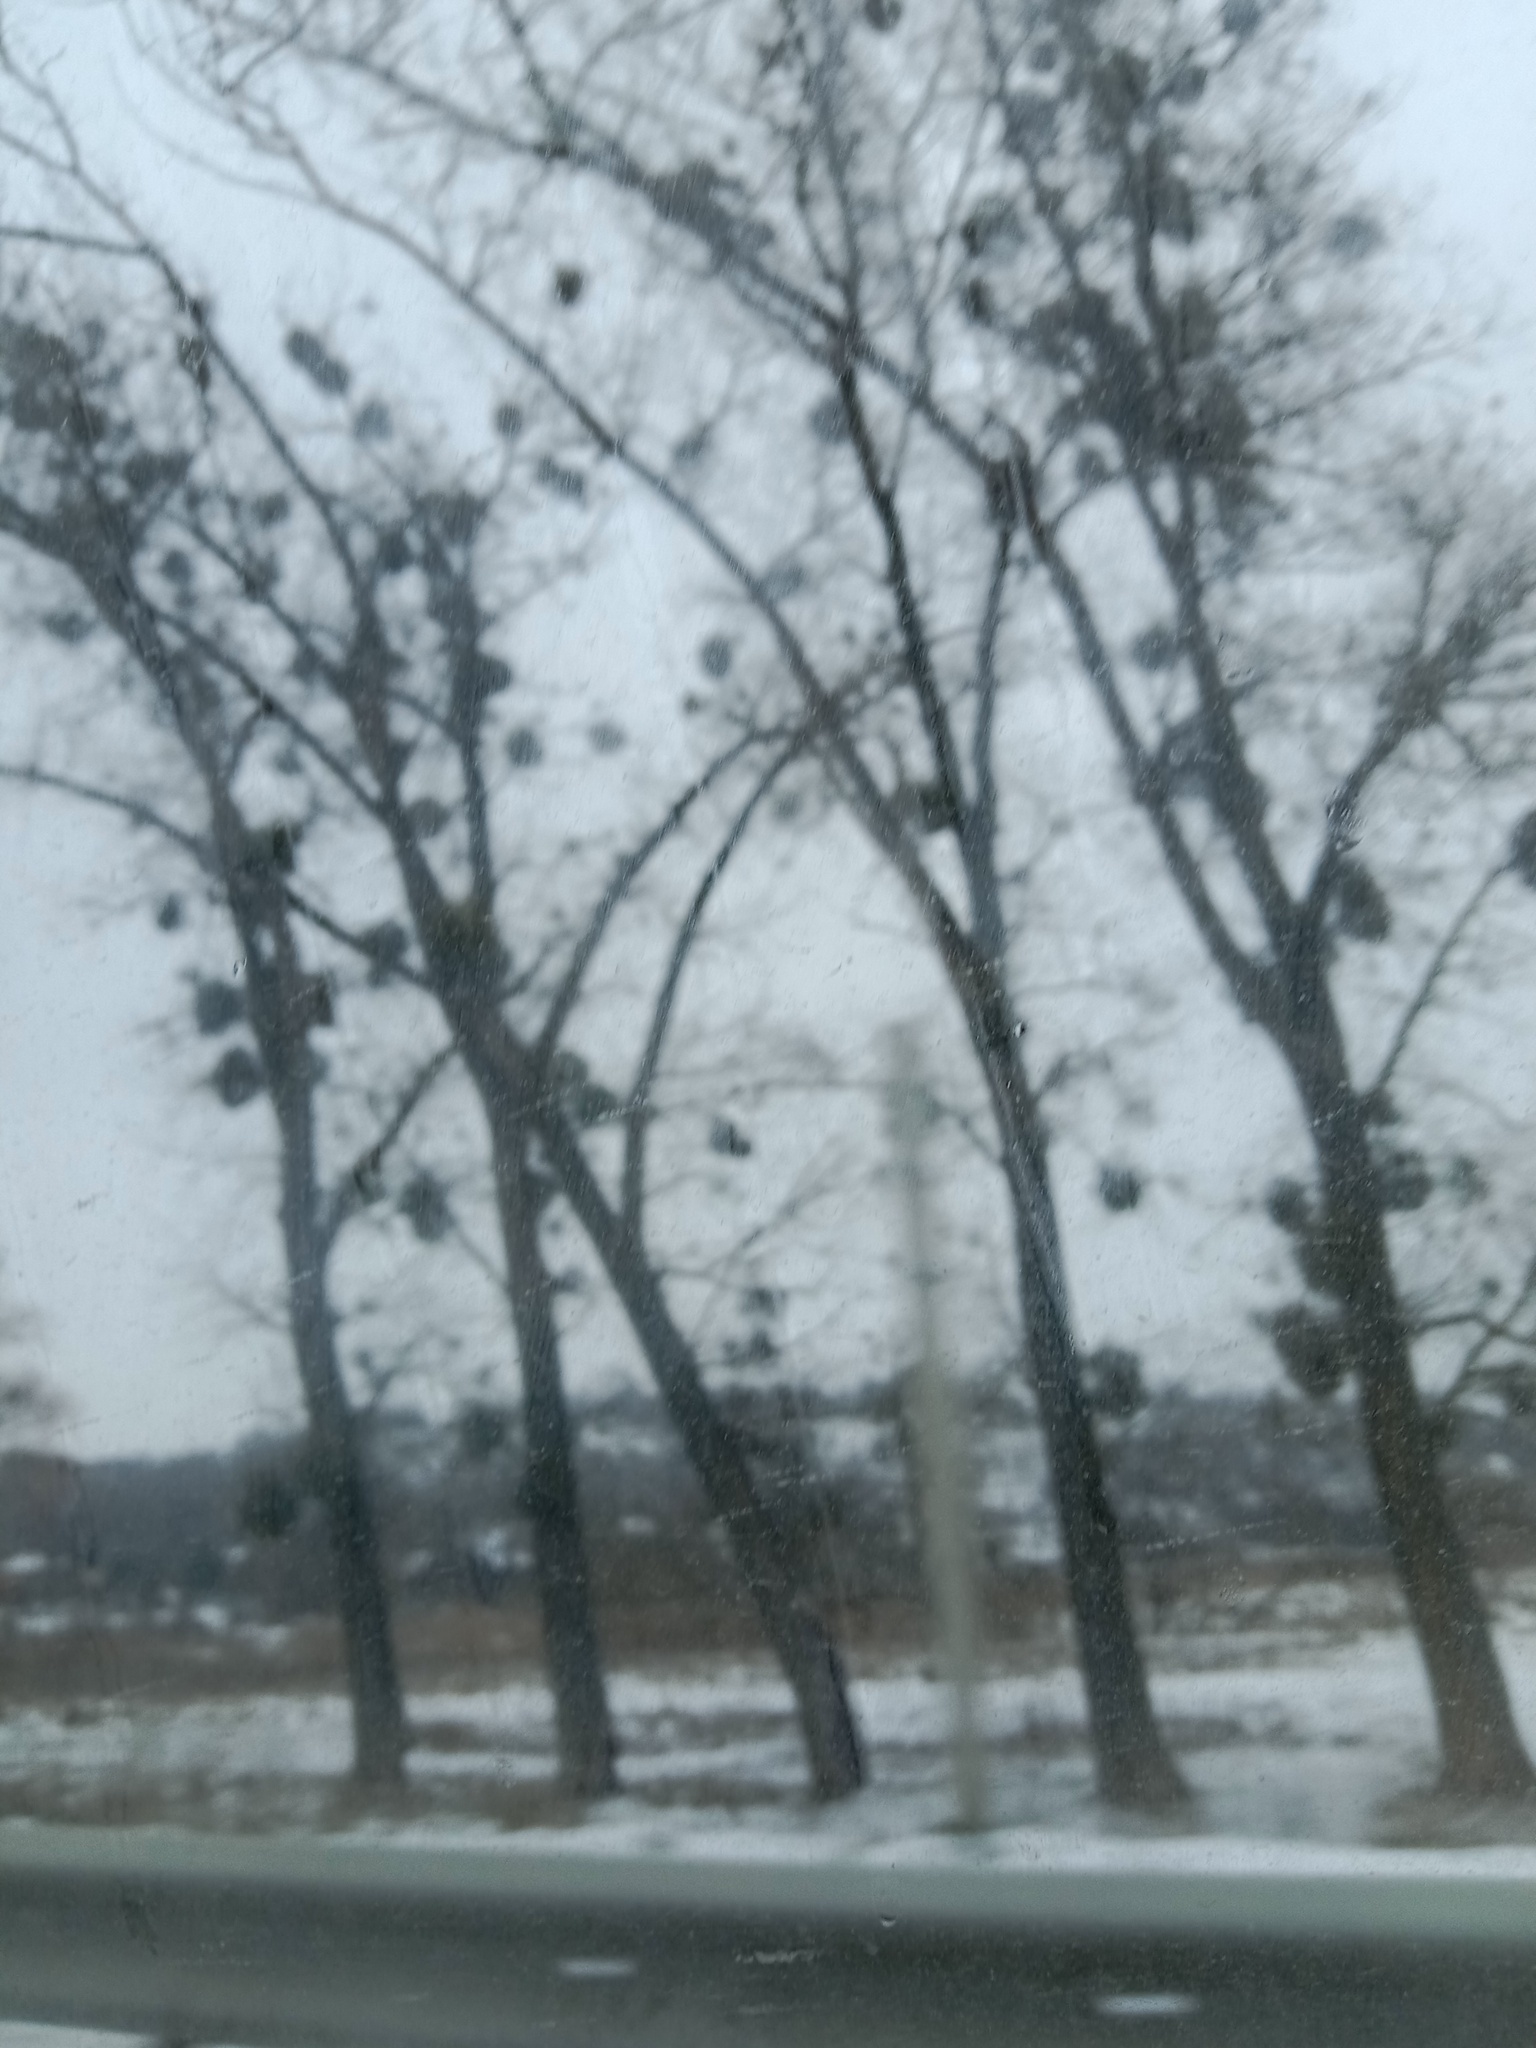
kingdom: Plantae
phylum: Tracheophyta
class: Magnoliopsida
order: Santalales
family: Viscaceae
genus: Viscum
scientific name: Viscum album
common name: Mistletoe
